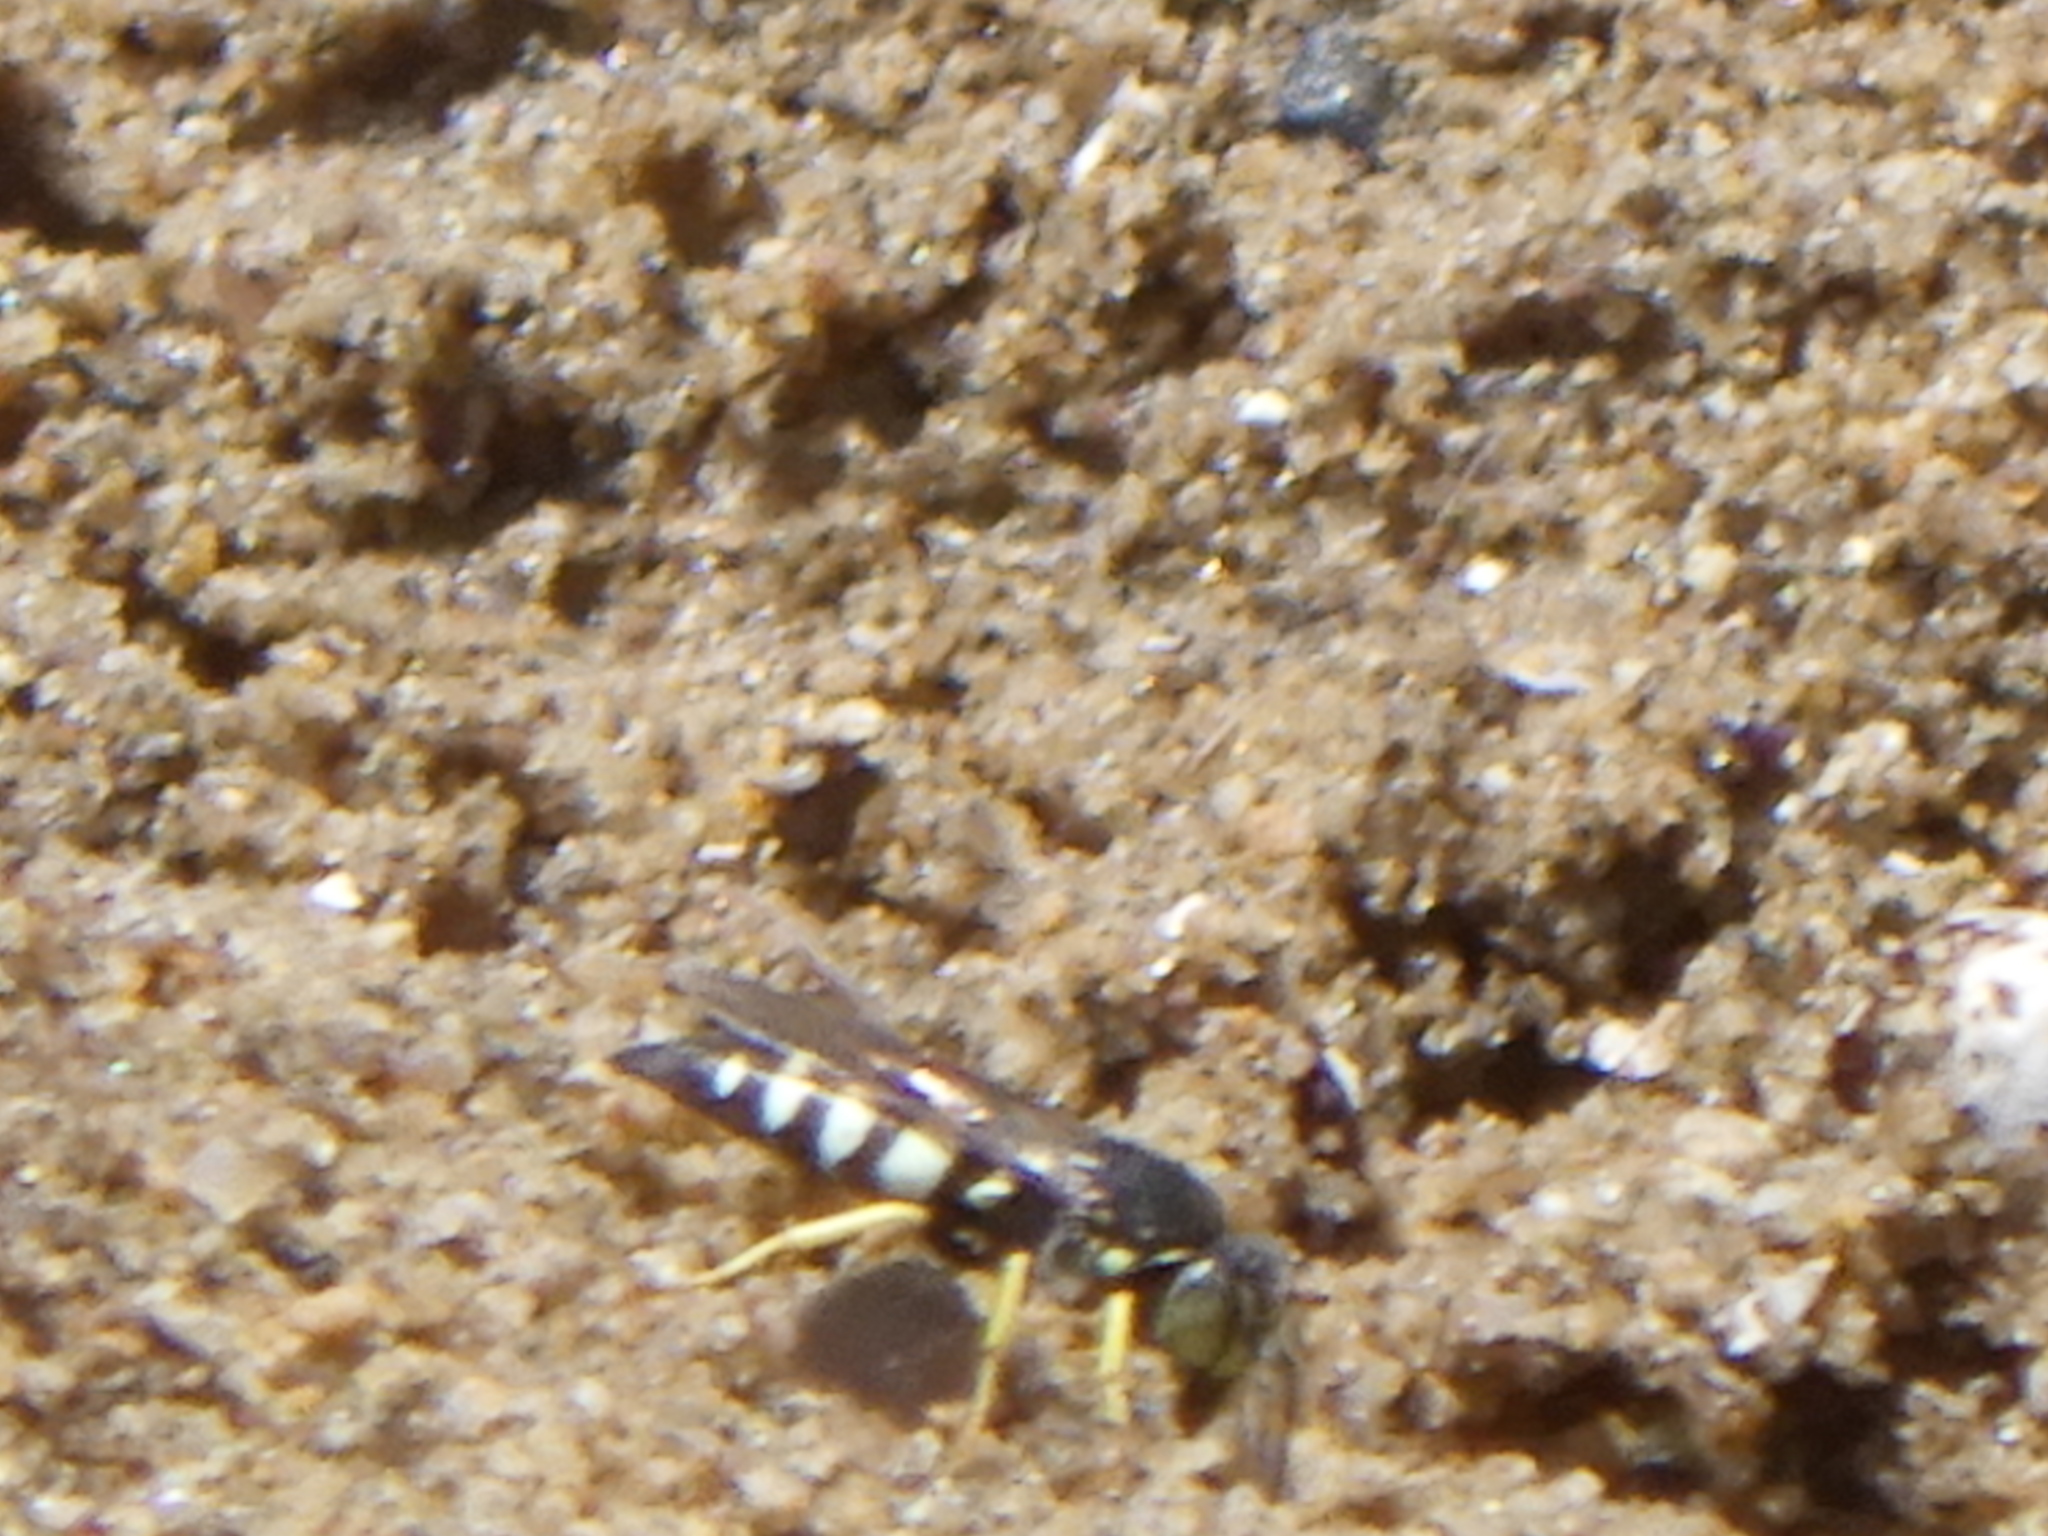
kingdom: Animalia
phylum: Arthropoda
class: Insecta
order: Hymenoptera
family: Crabronidae
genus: Bicyrtes
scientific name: Bicyrtes quadrifasciatus
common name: Four-banded stink bug hunter wasp
